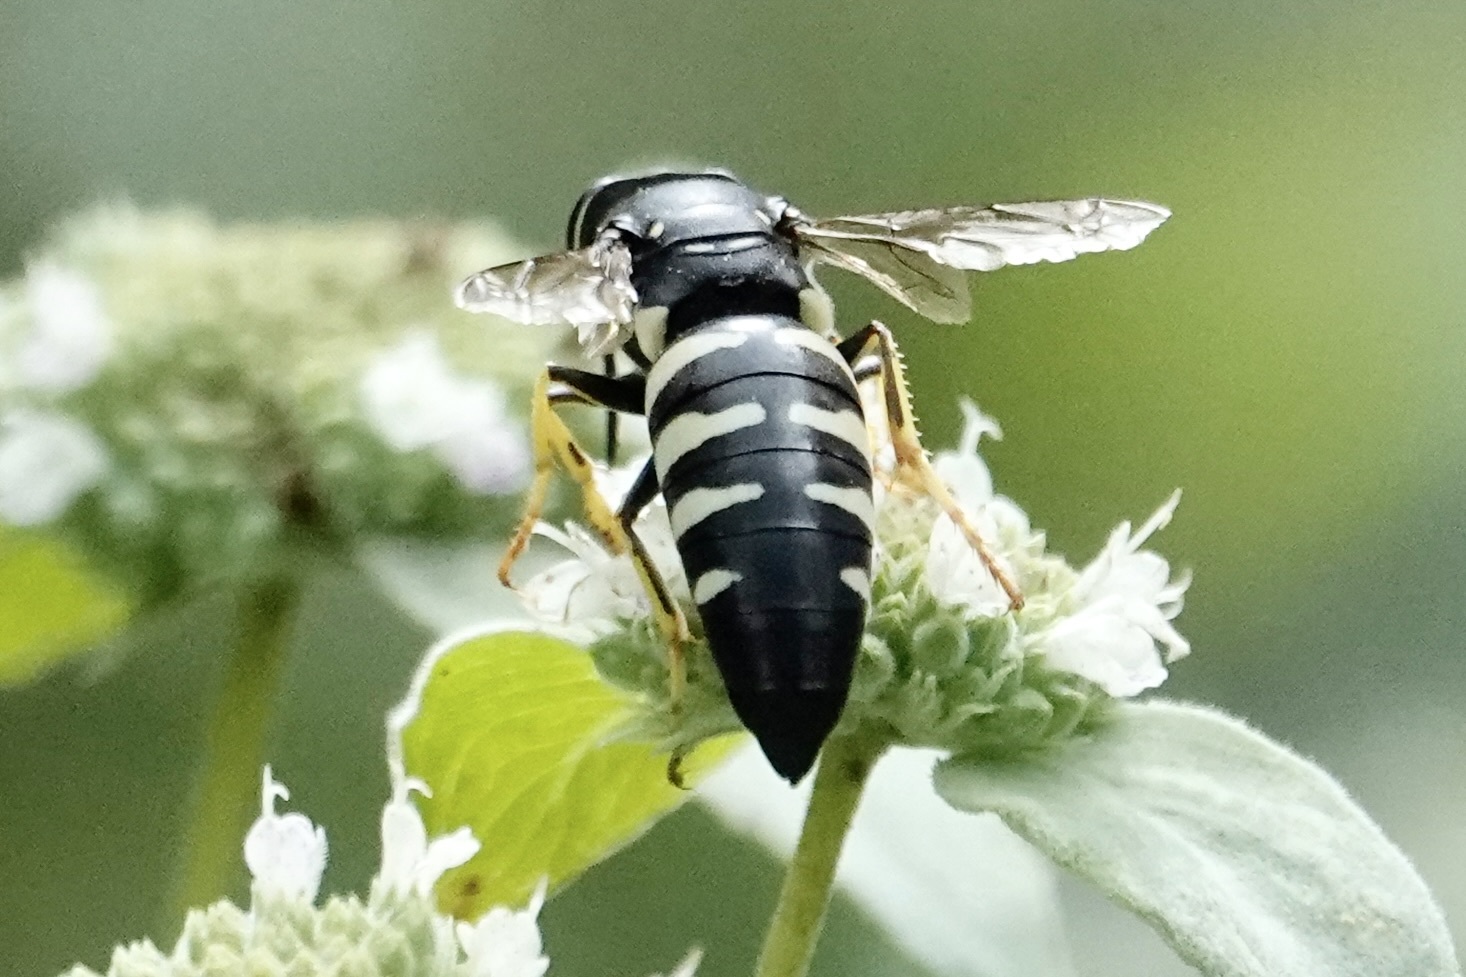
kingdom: Animalia
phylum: Arthropoda
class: Insecta
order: Hymenoptera
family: Crabronidae
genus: Bicyrtes
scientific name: Bicyrtes quadrifasciatus
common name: Four-banded stink bug hunter wasp
